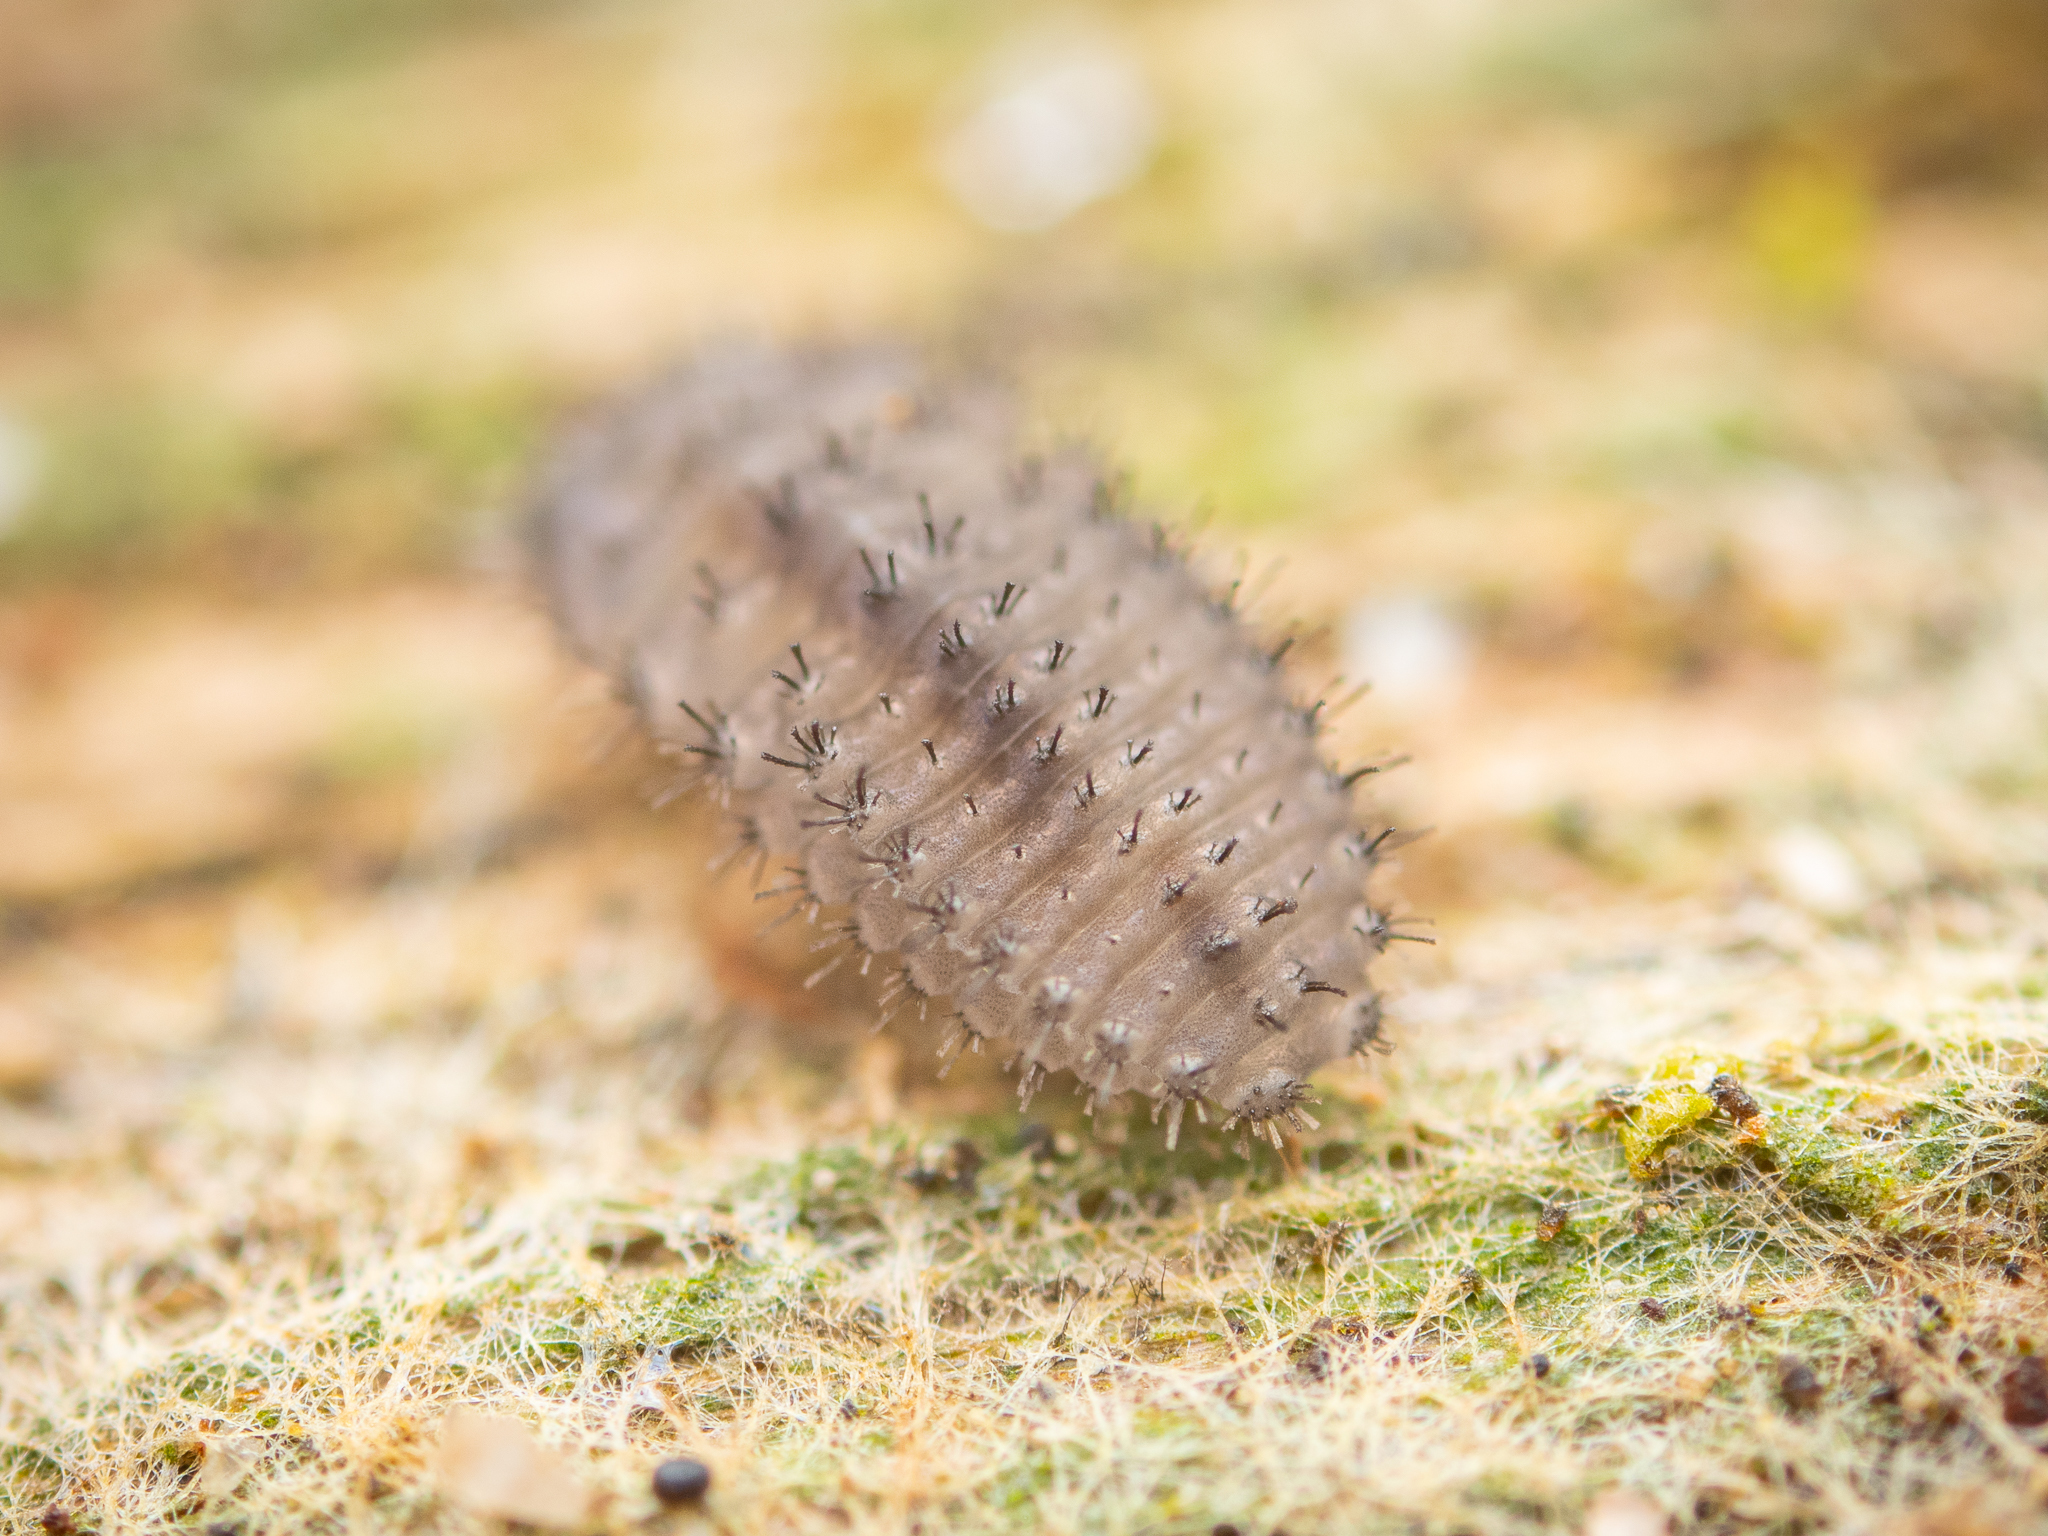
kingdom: Animalia
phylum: Arthropoda
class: Insecta
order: Coleoptera
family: Endomychidae
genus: Mycetina
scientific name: Mycetina cruciata
